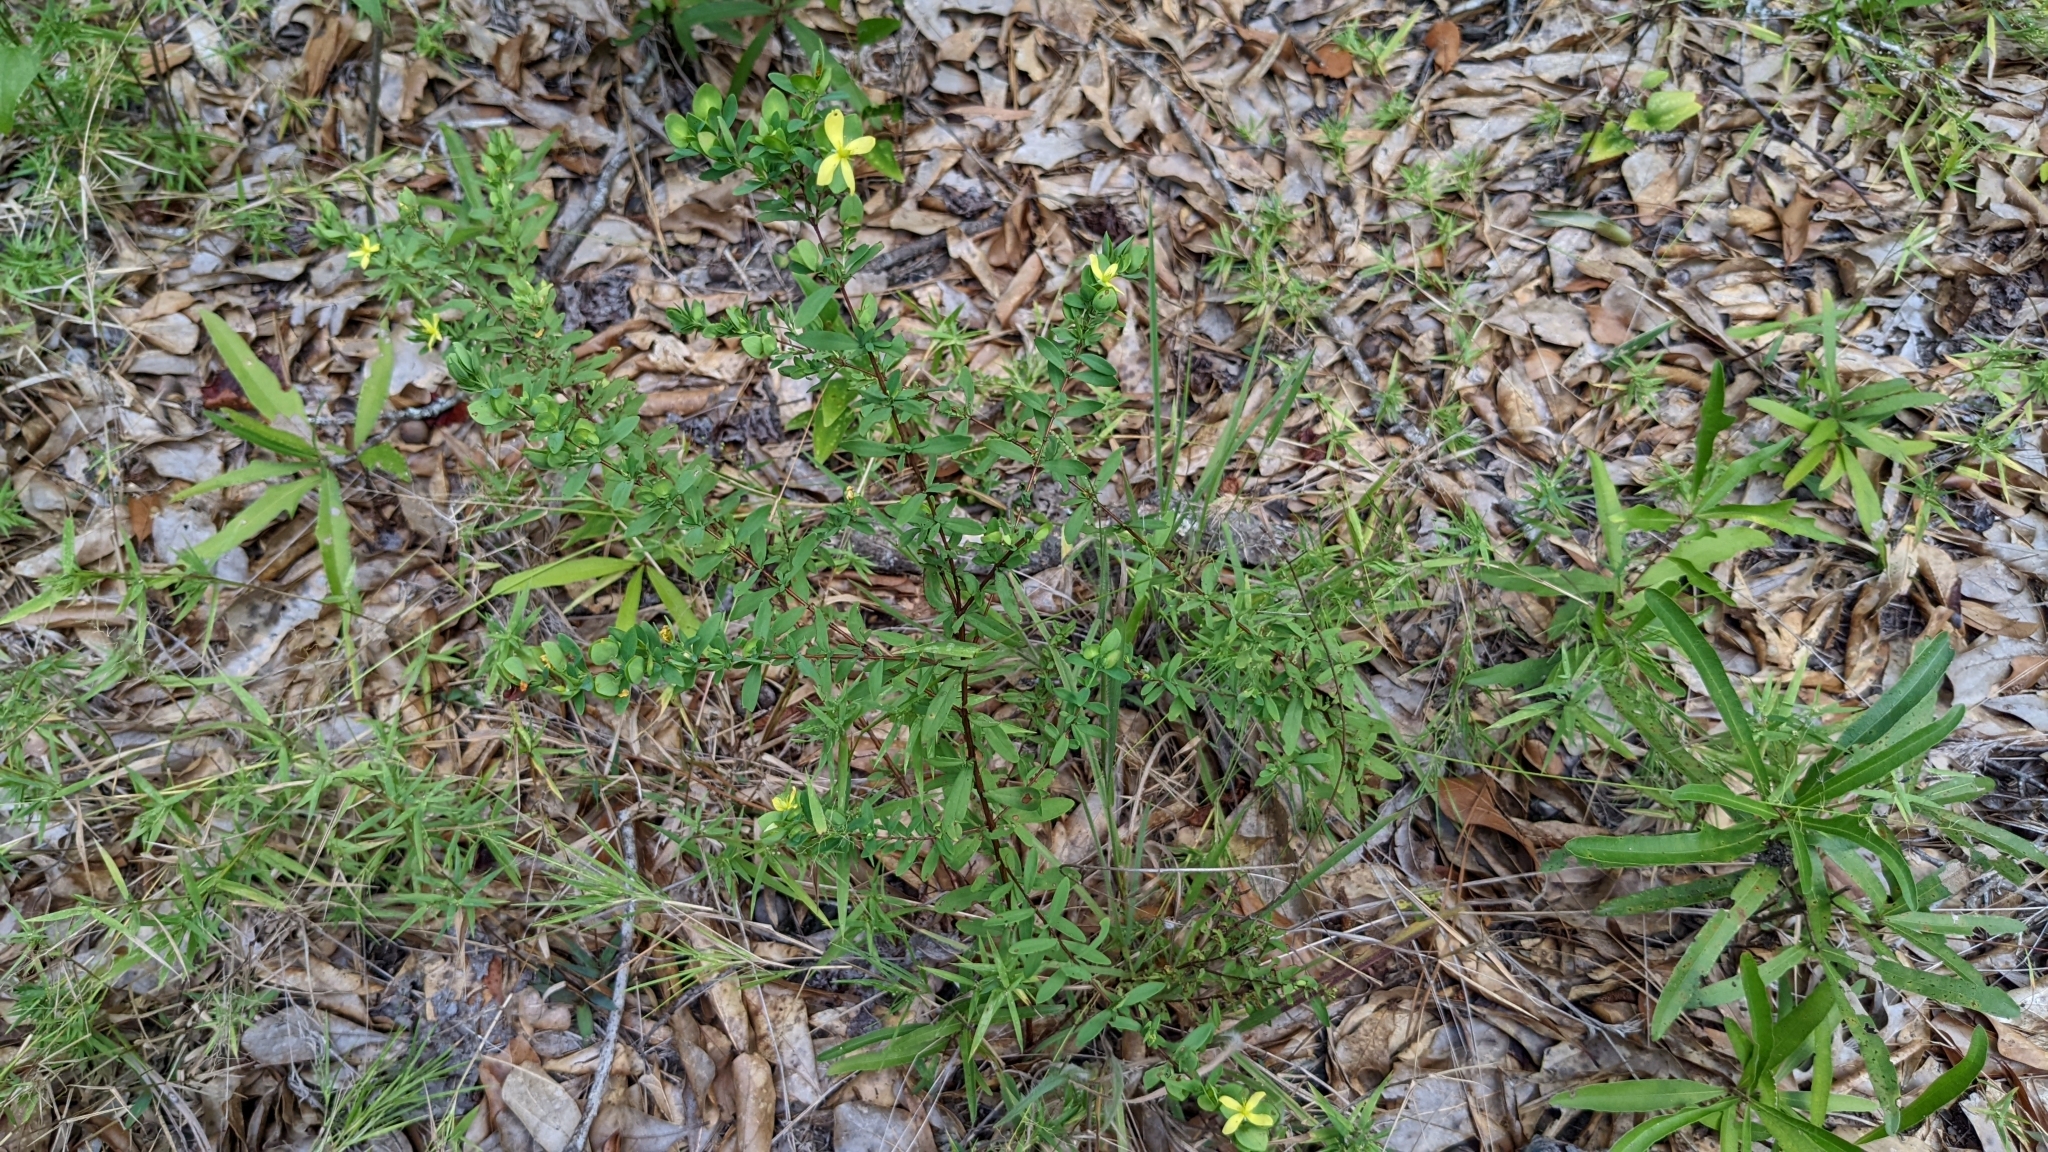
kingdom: Plantae
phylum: Tracheophyta
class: Magnoliopsida
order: Malpighiales
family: Hypericaceae
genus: Hypericum
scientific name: Hypericum hypericoides
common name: St. andrew's cross
